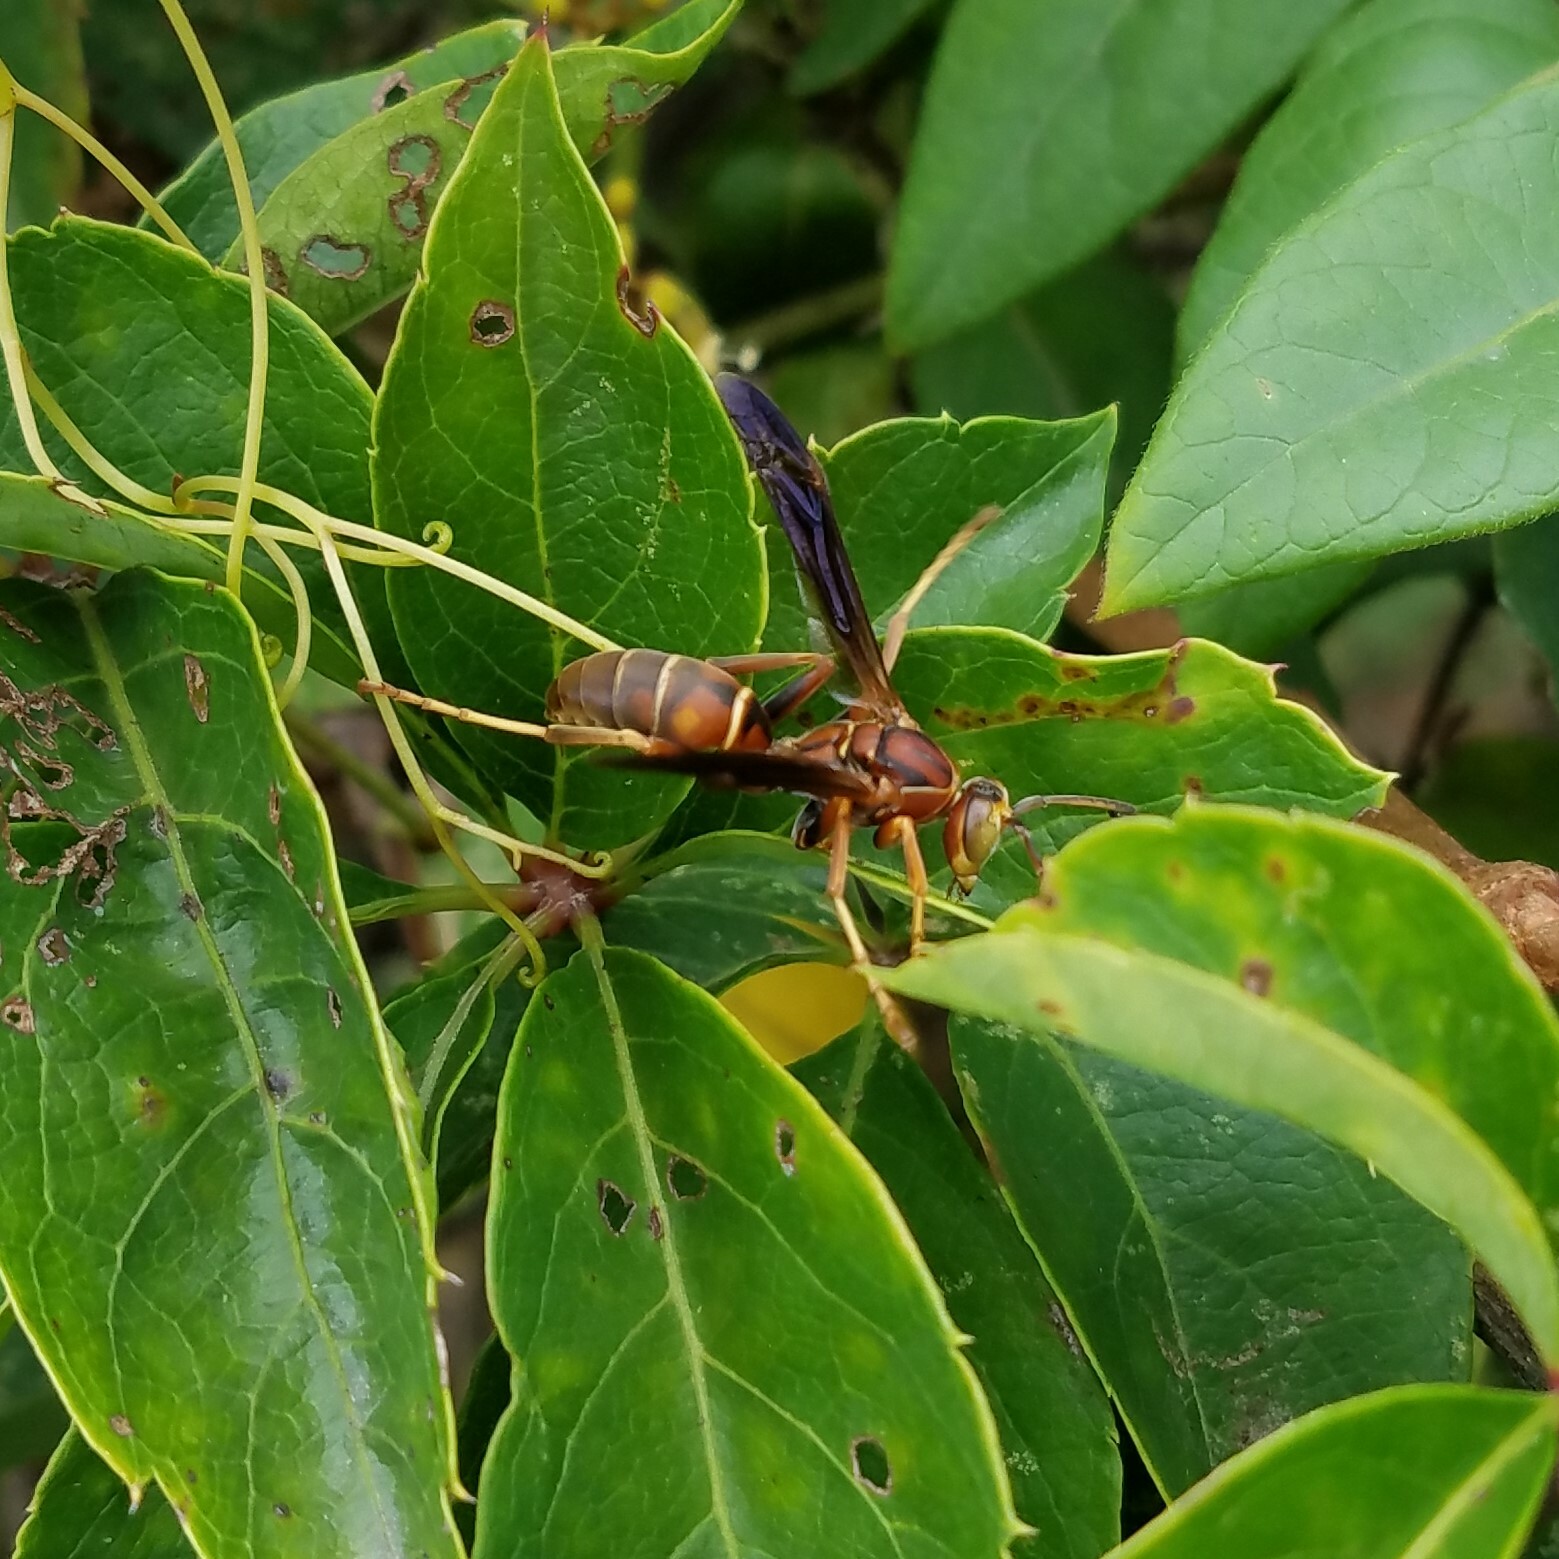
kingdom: Animalia
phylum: Arthropoda
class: Insecta
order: Hymenoptera
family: Eumenidae
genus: Polistes
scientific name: Polistes fuscatus
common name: Dark paper wasp
